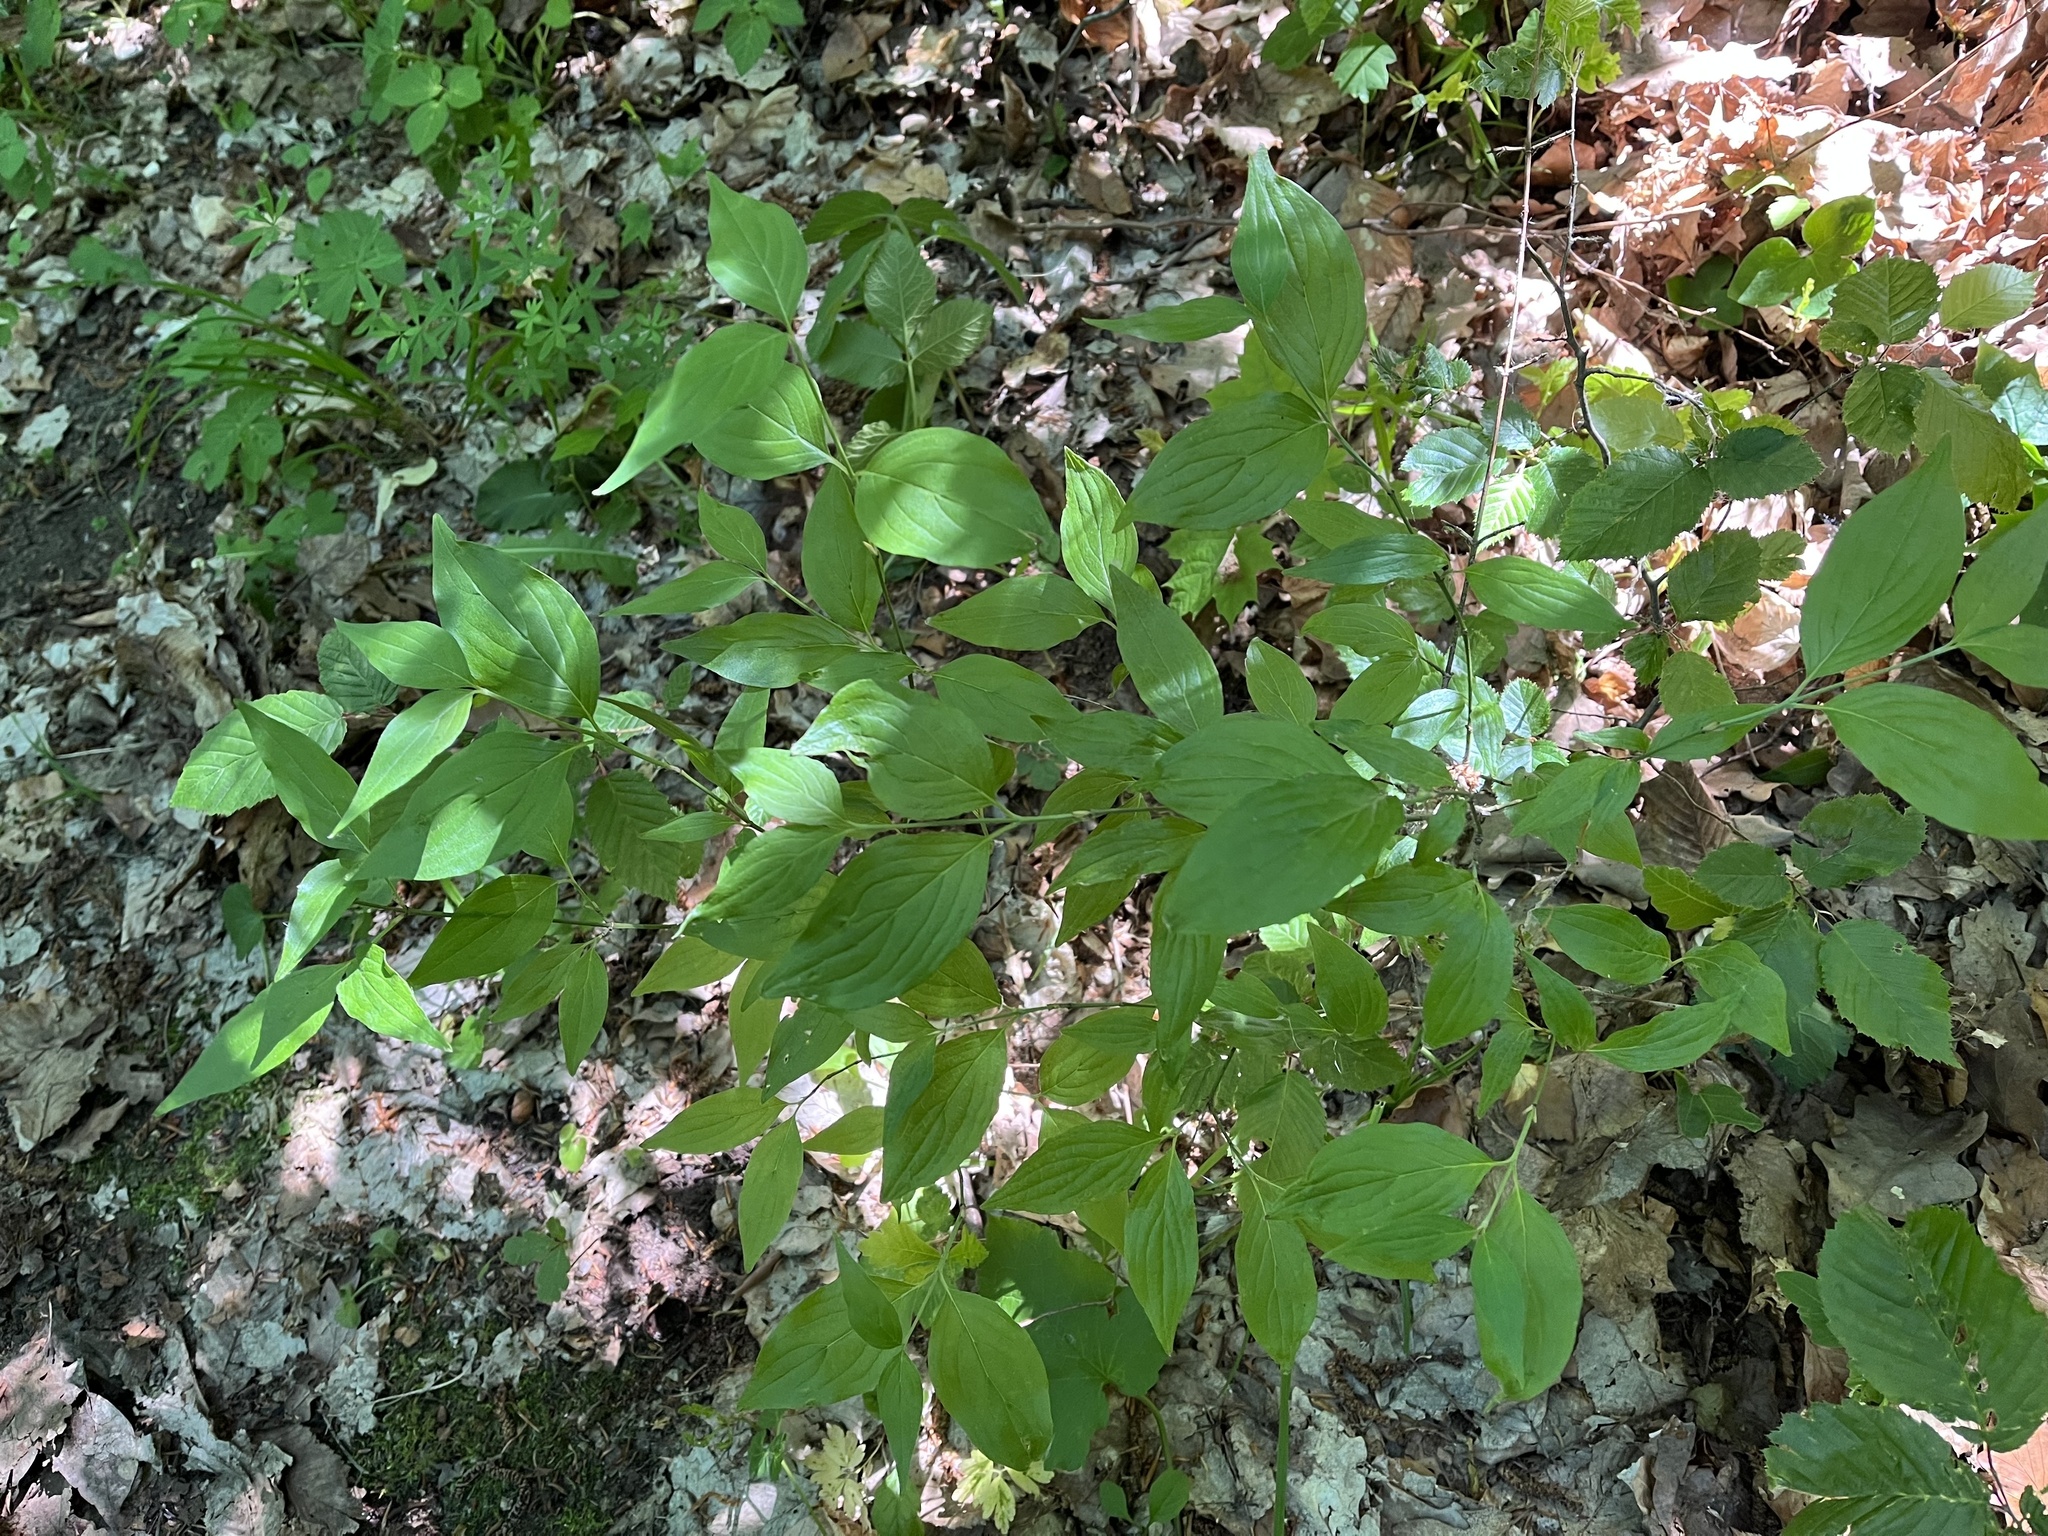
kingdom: Plantae
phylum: Tracheophyta
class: Magnoliopsida
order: Cornales
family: Cornaceae
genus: Cornus
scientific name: Cornus mas
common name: Cornelian-cherry
